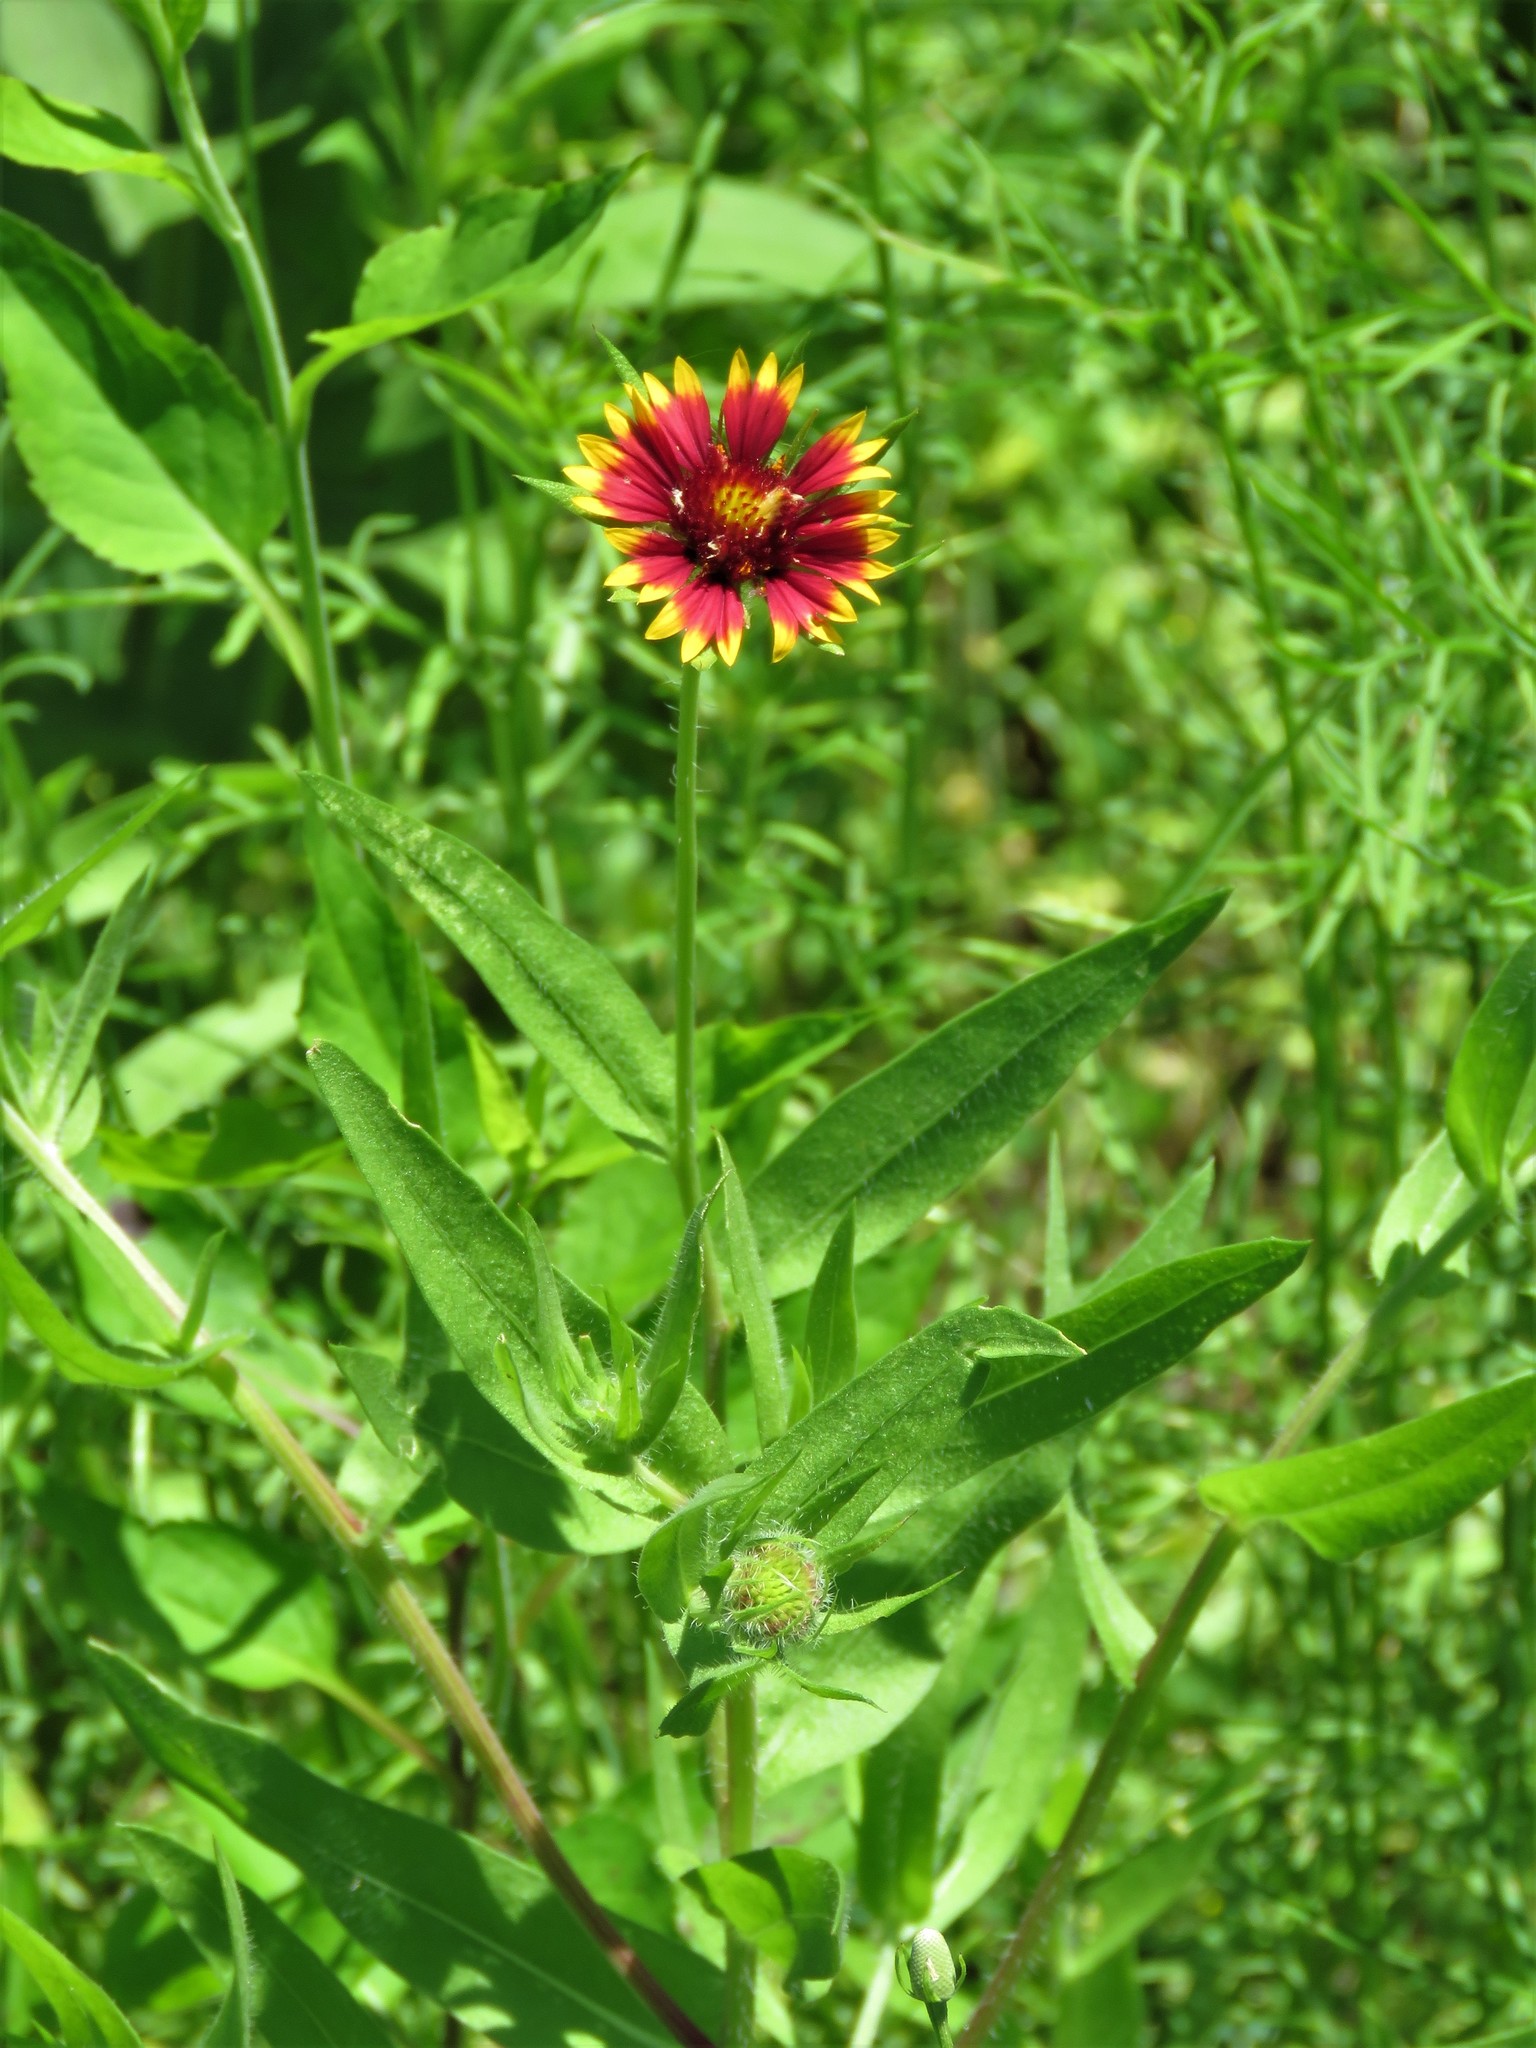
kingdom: Plantae
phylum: Tracheophyta
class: Magnoliopsida
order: Asterales
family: Asteraceae
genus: Gaillardia
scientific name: Gaillardia pulchella
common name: Firewheel
